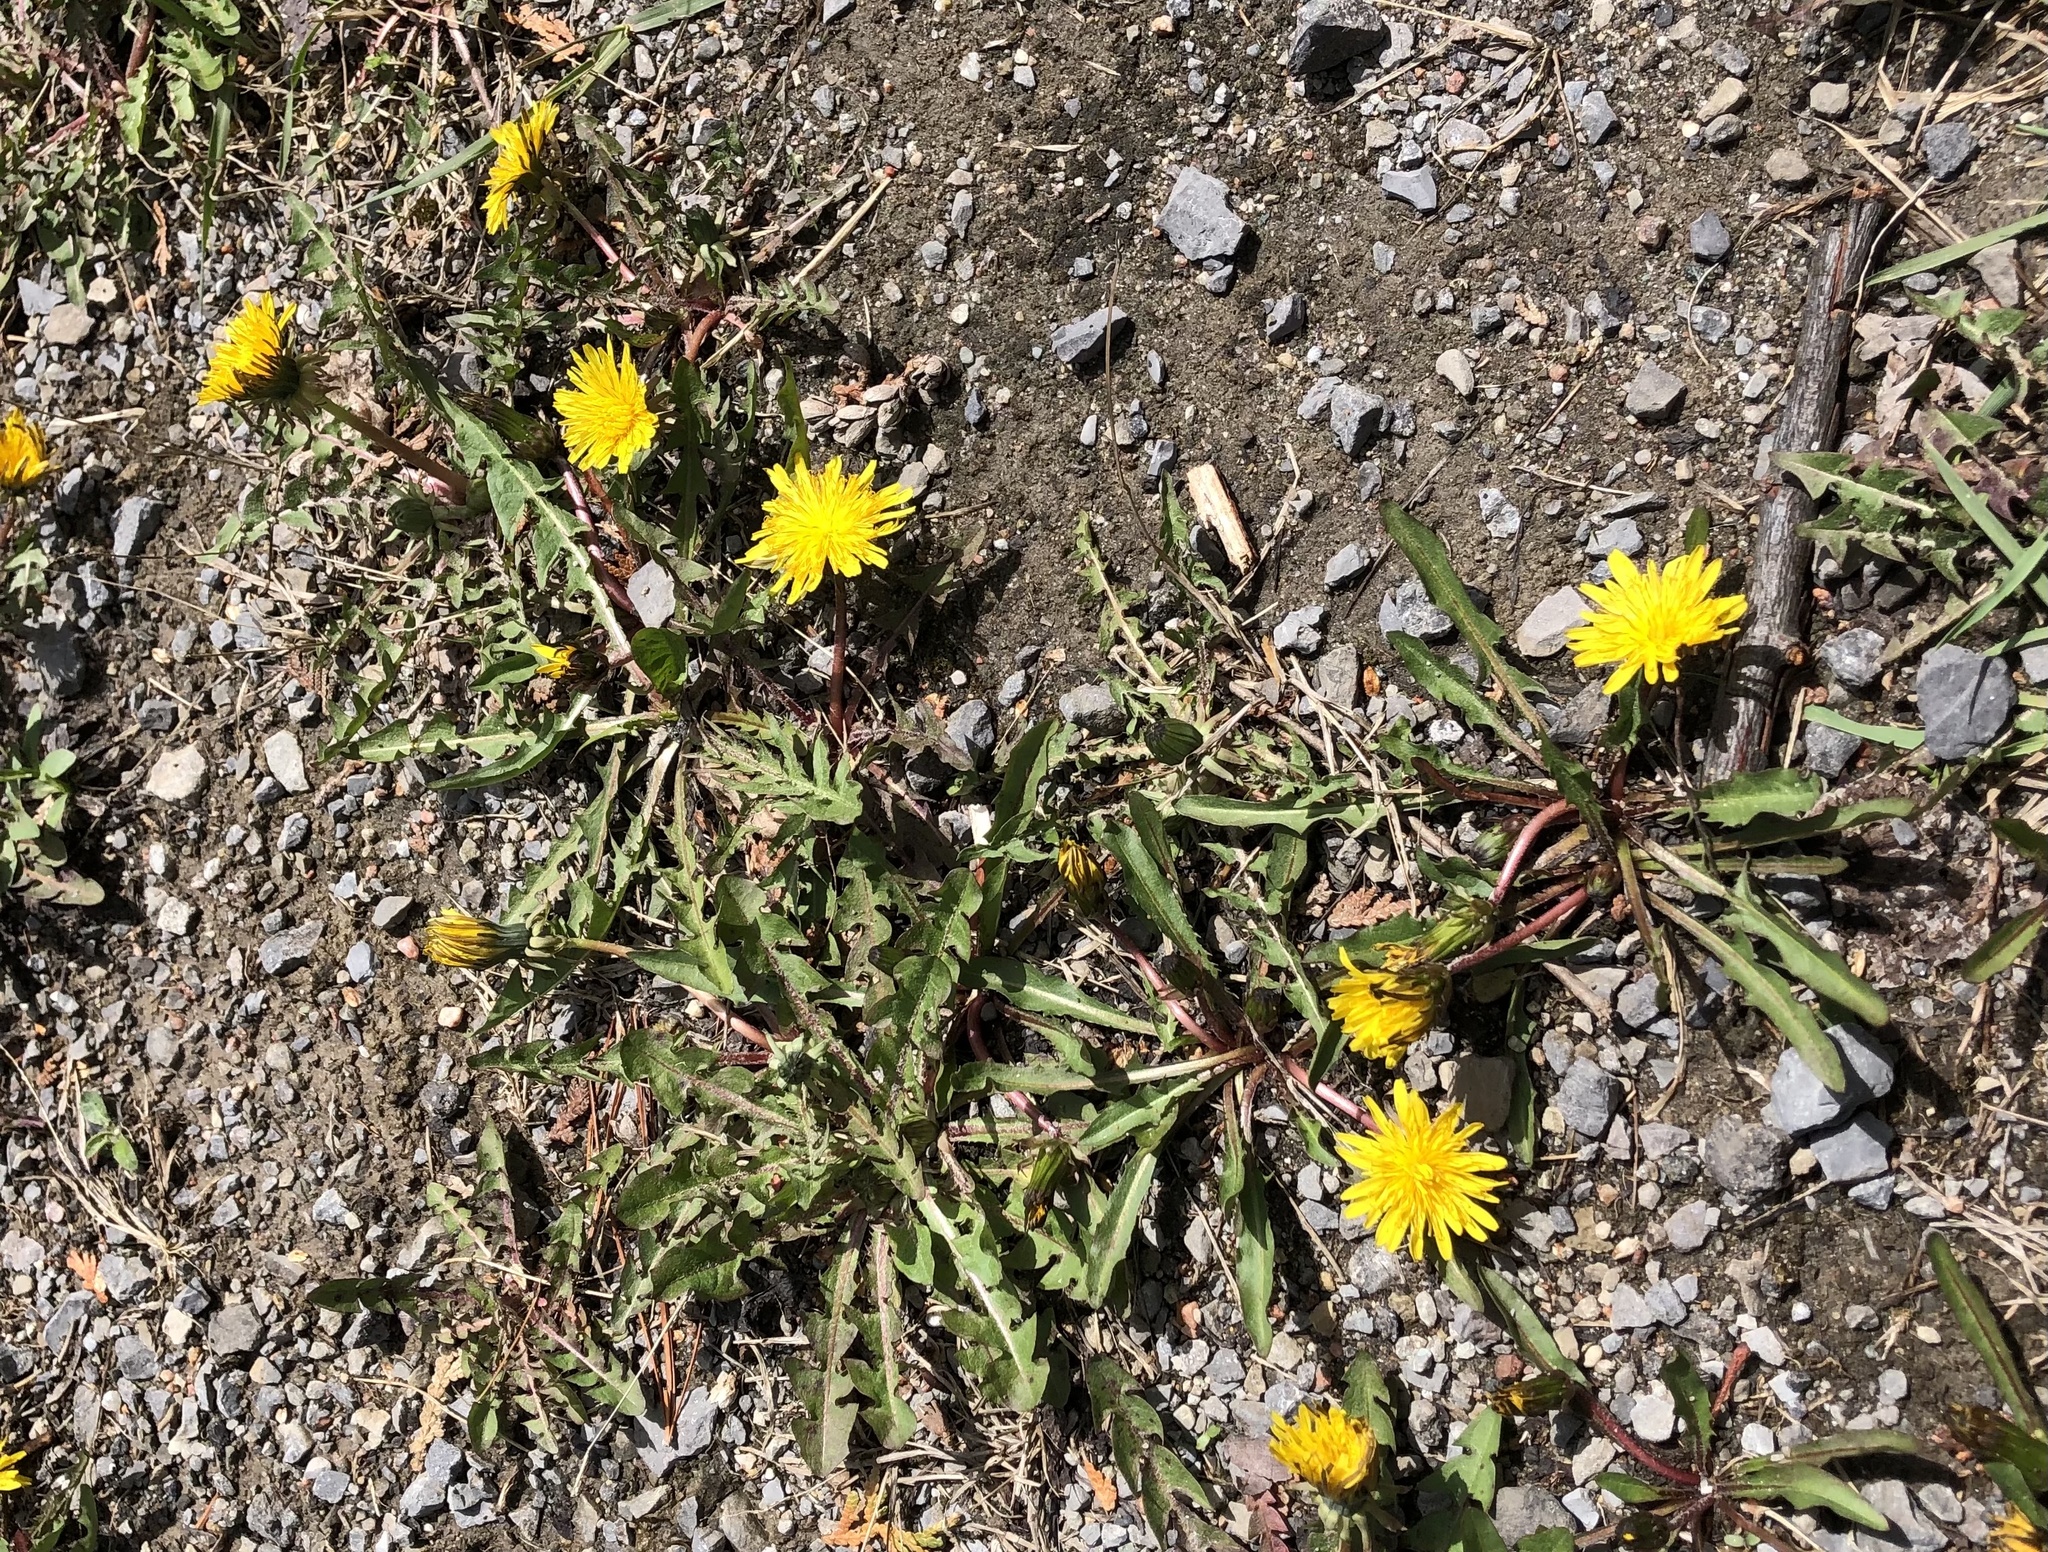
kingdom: Plantae
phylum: Tracheophyta
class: Magnoliopsida
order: Asterales
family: Asteraceae
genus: Taraxacum
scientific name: Taraxacum officinale
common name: Common dandelion
